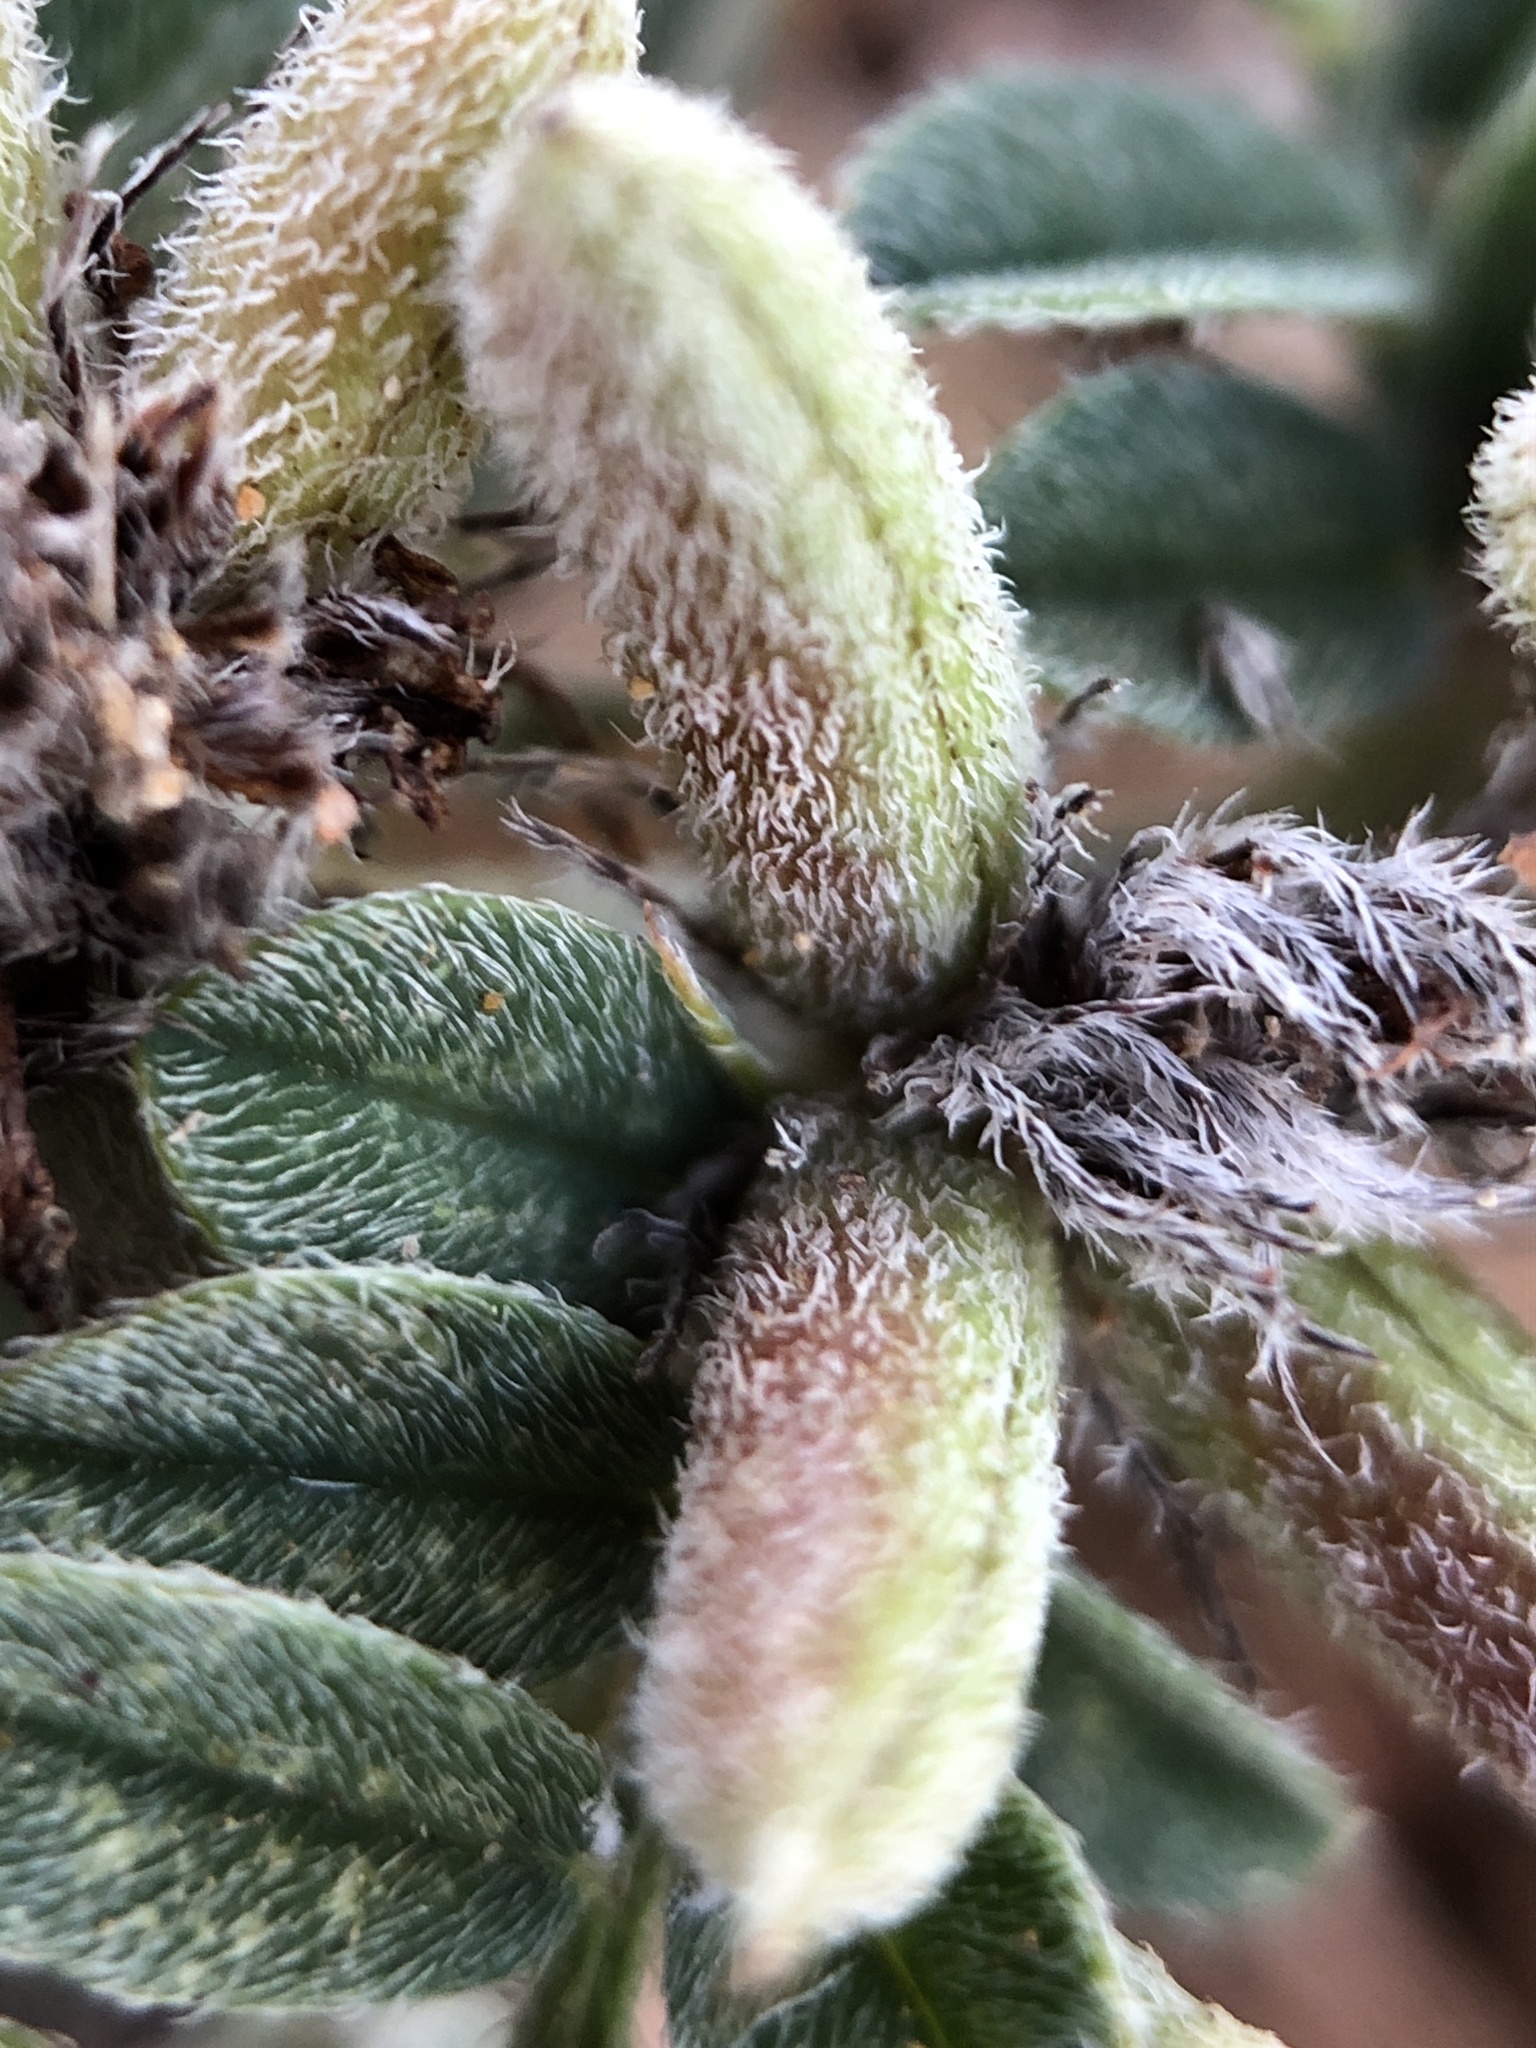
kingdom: Plantae
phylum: Tracheophyta
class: Magnoliopsida
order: Fabales
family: Fabaceae
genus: Indigofera
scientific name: Indigofera linnaei
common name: Nine-leaf indigo
